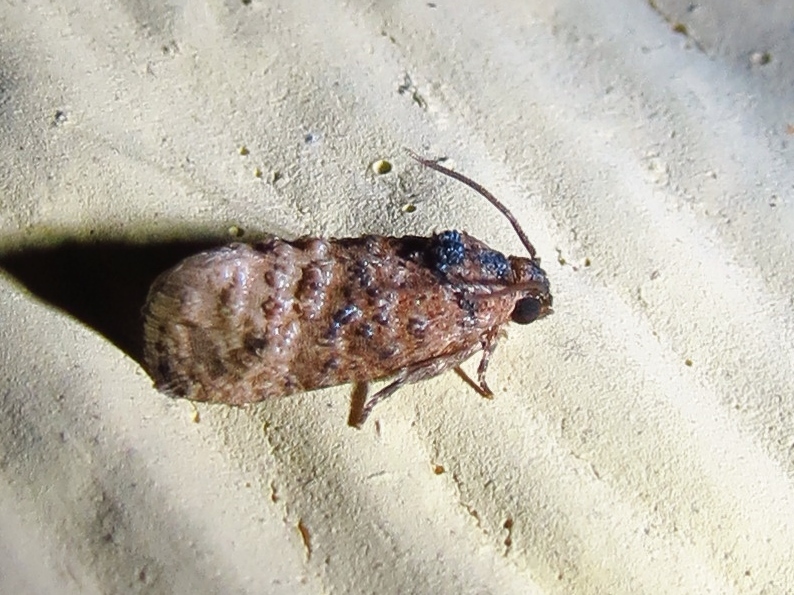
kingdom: Animalia
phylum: Arthropoda
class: Insecta
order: Lepidoptera
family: Tortricidae
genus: Ecdytolopha
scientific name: Ecdytolopha mana
